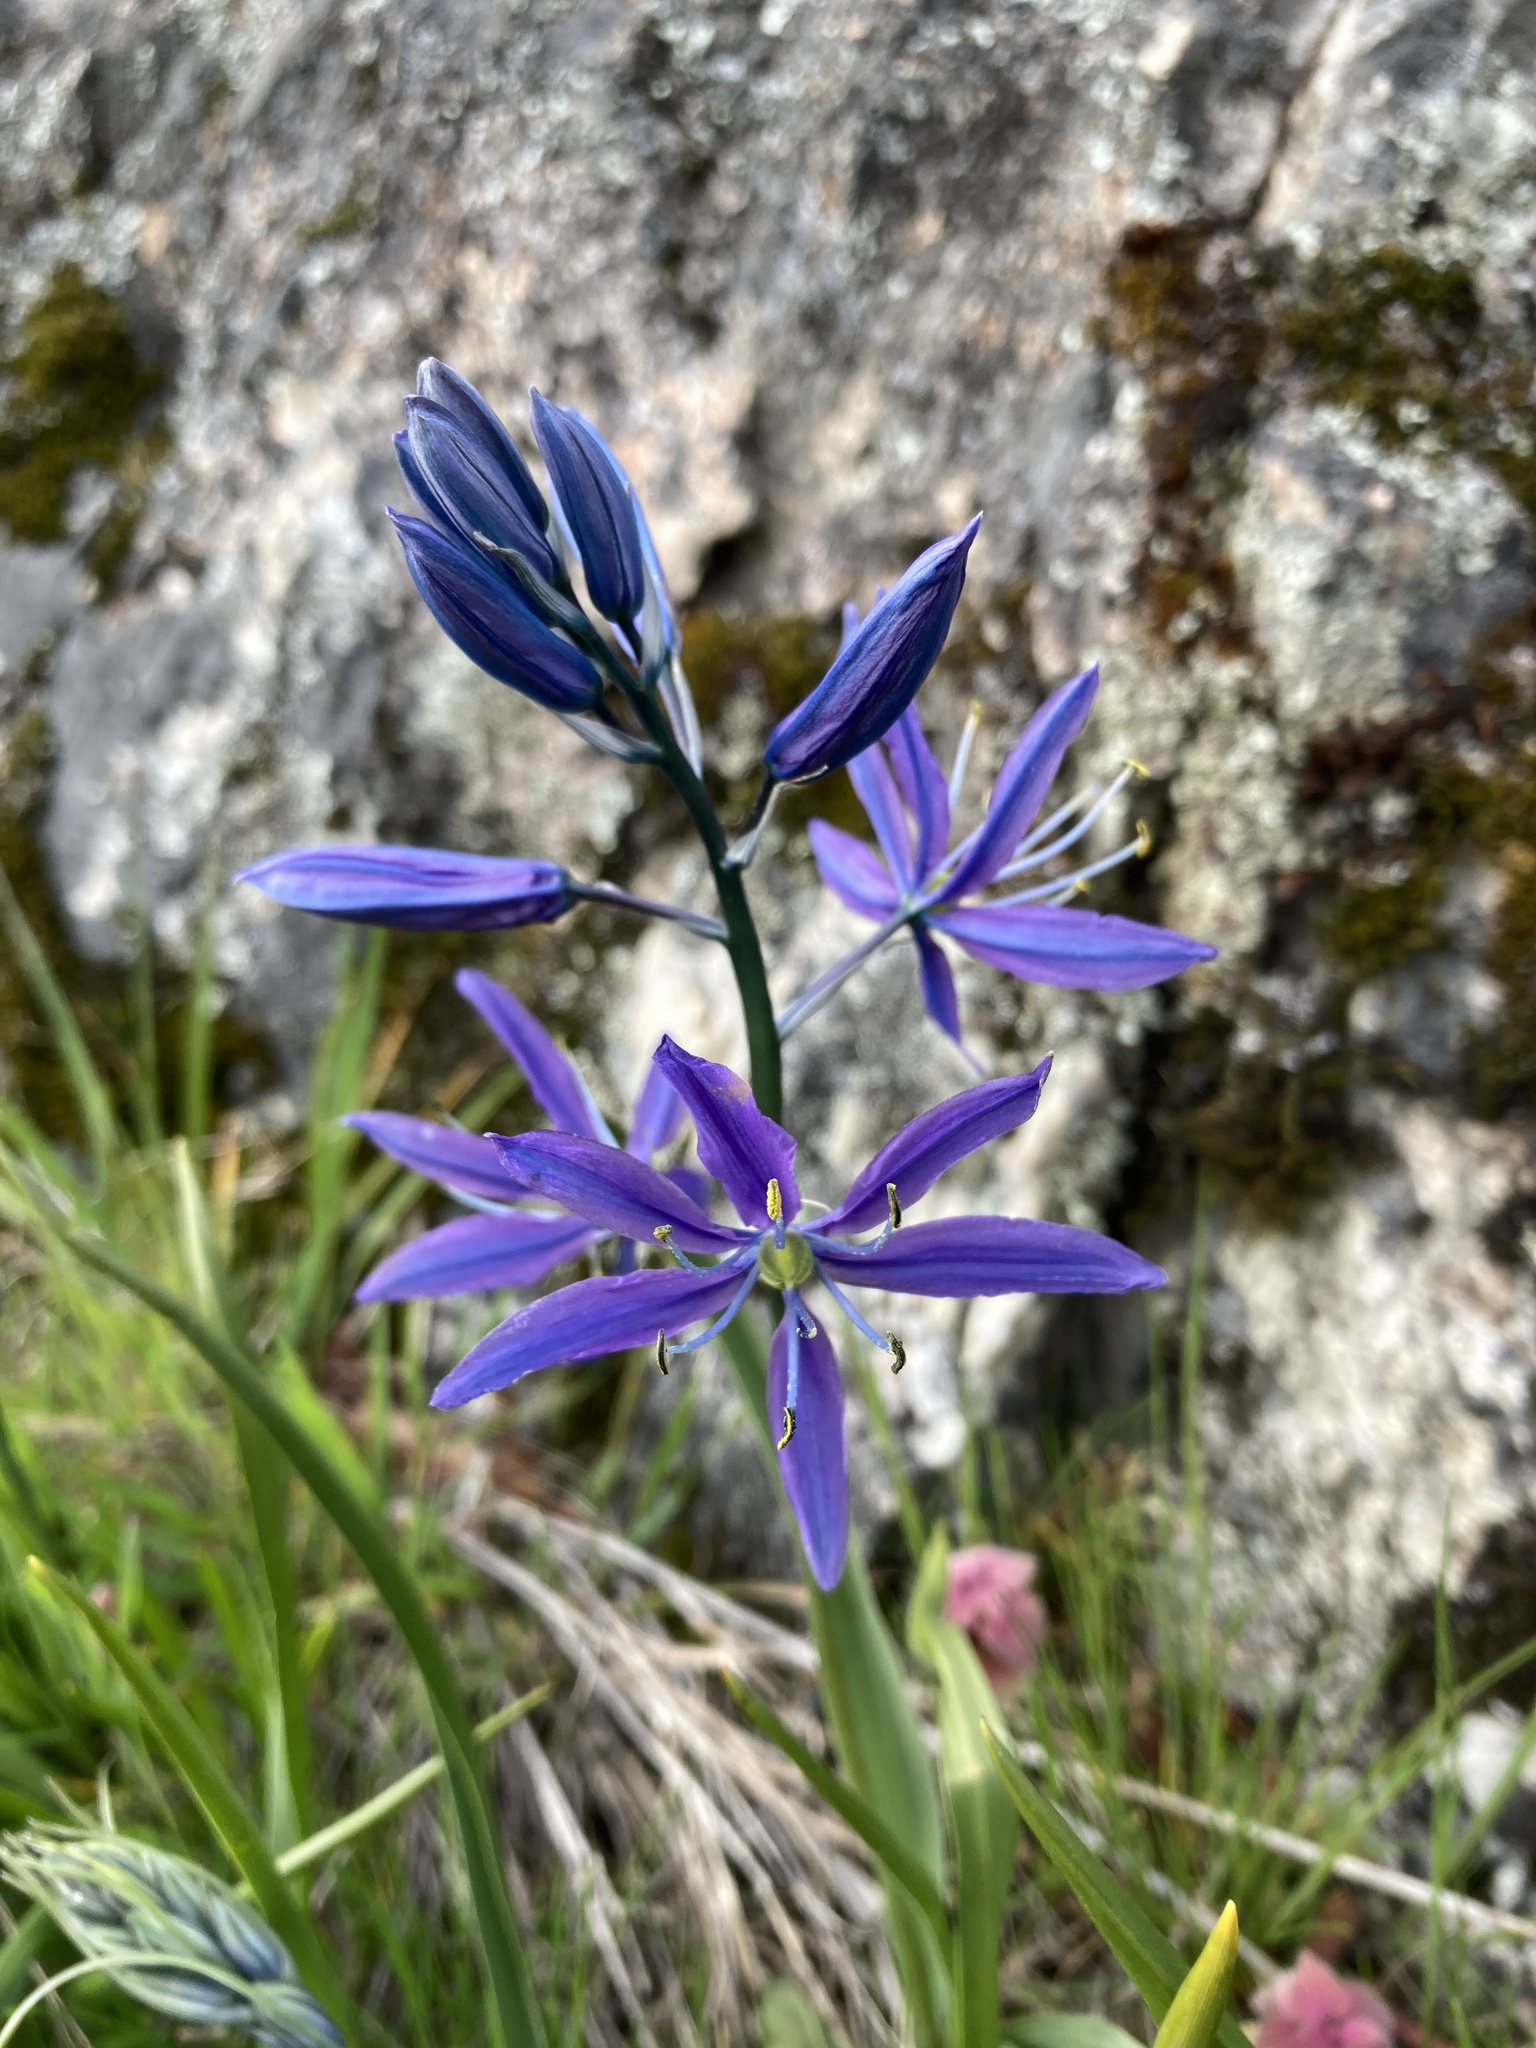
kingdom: Plantae
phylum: Tracheophyta
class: Liliopsida
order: Asparagales
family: Asparagaceae
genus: Camassia
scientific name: Camassia quamash
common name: Common camas
